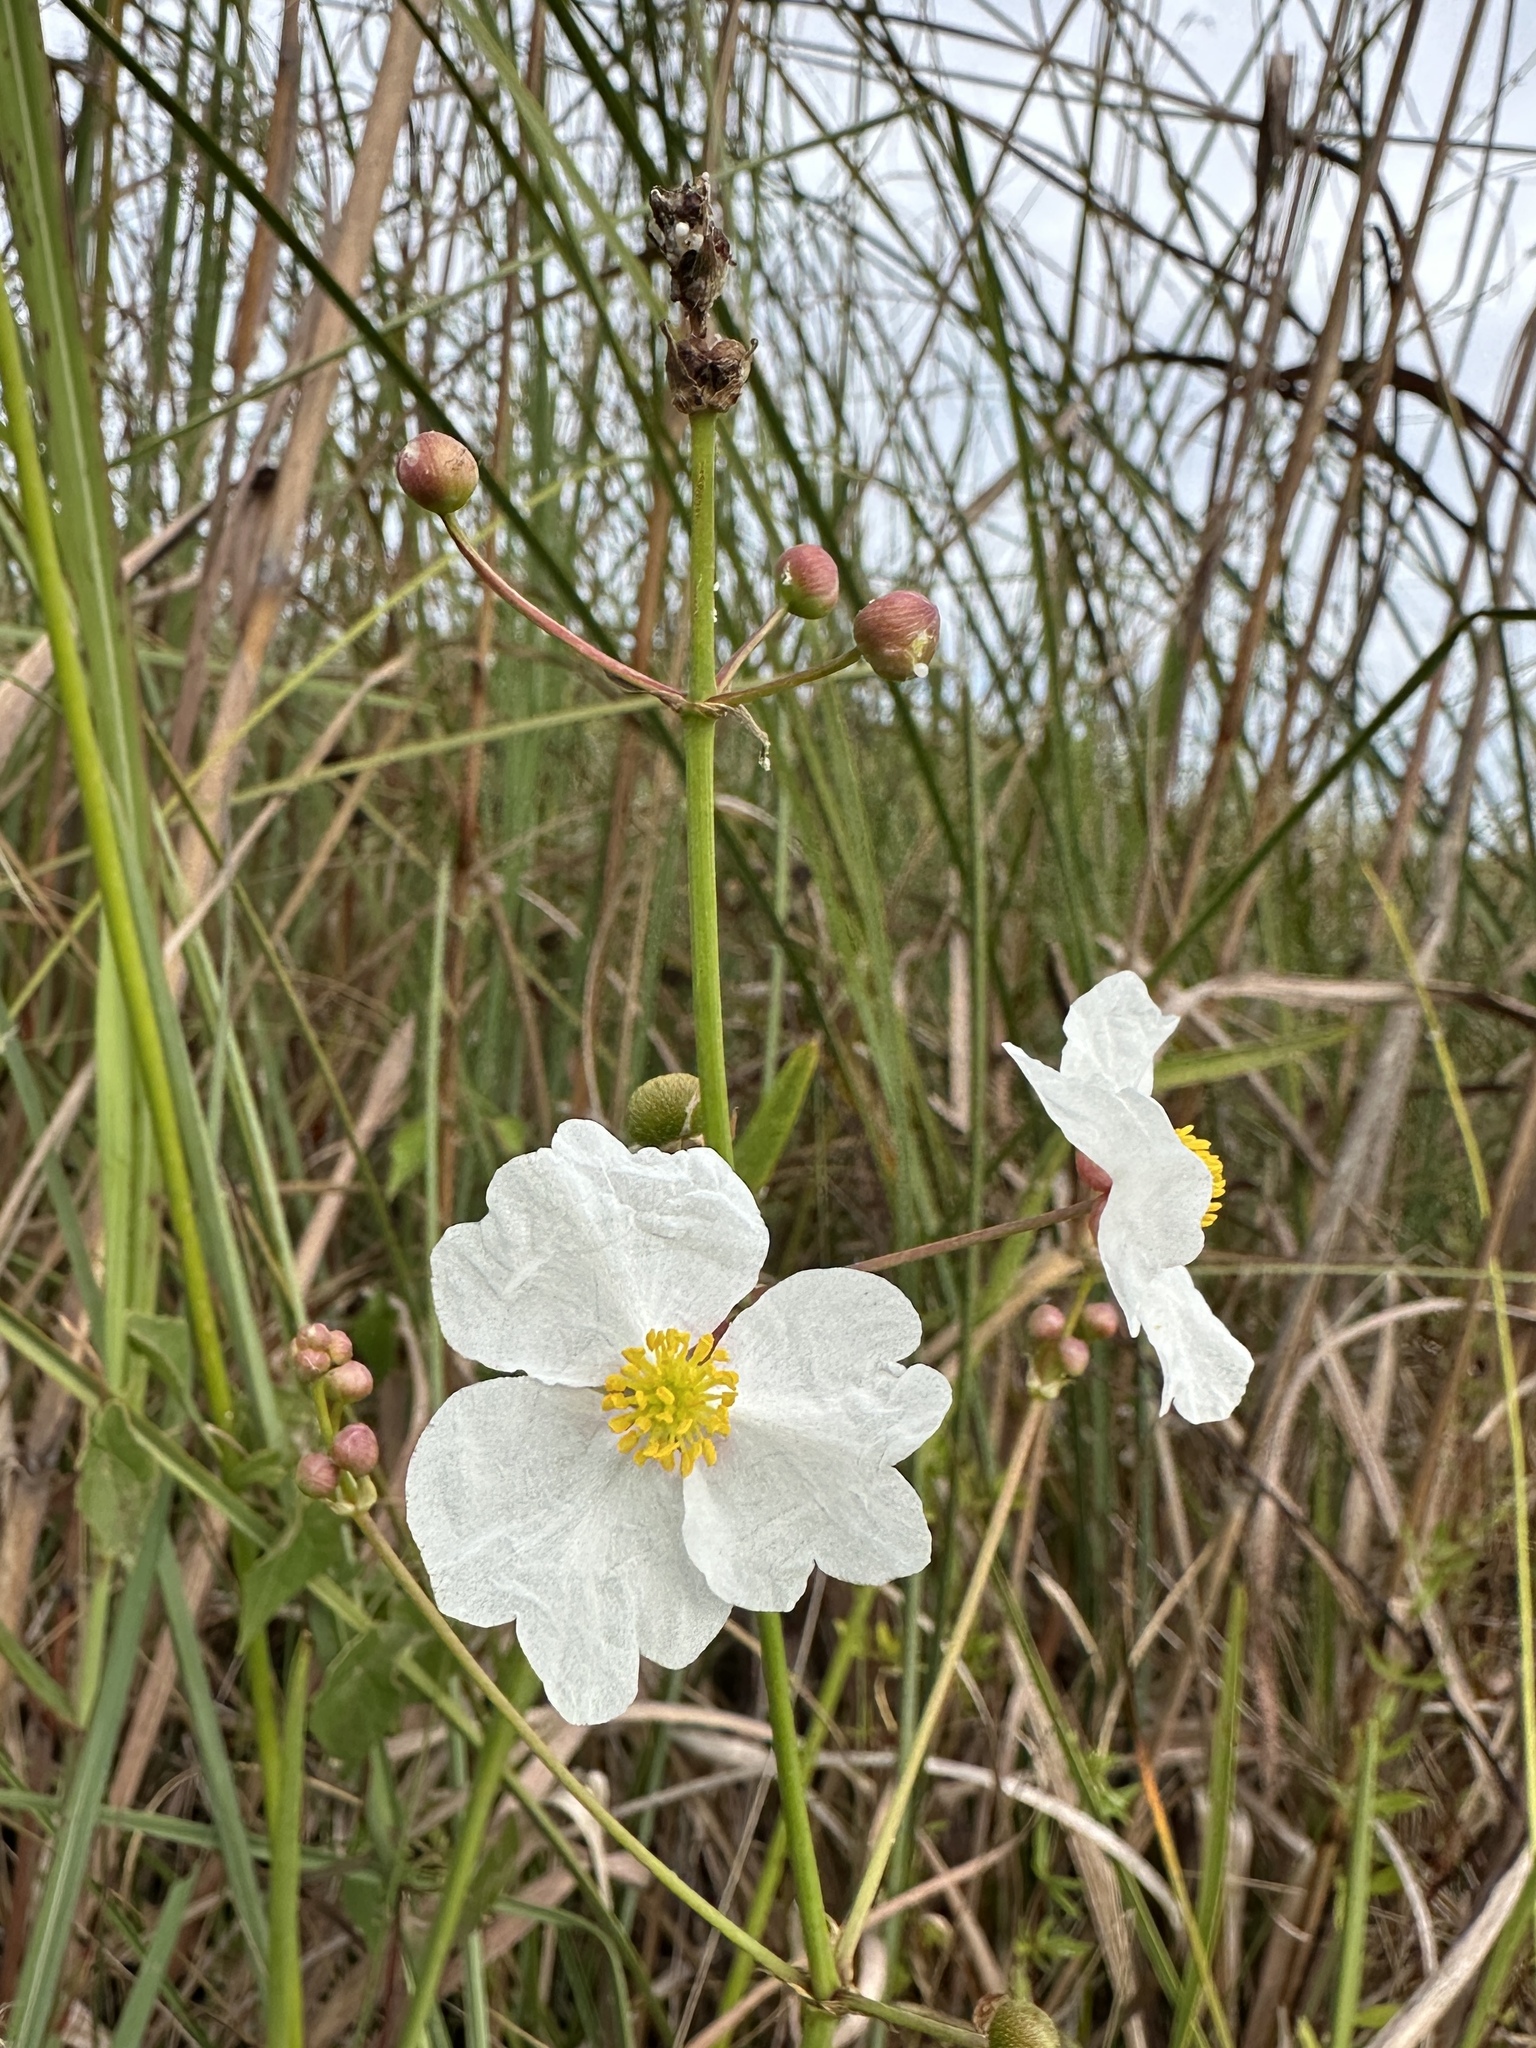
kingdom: Plantae
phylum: Tracheophyta
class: Liliopsida
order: Alismatales
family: Alismataceae
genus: Sagittaria
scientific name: Sagittaria lancifolia
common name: Lance-leaf arrowhead
